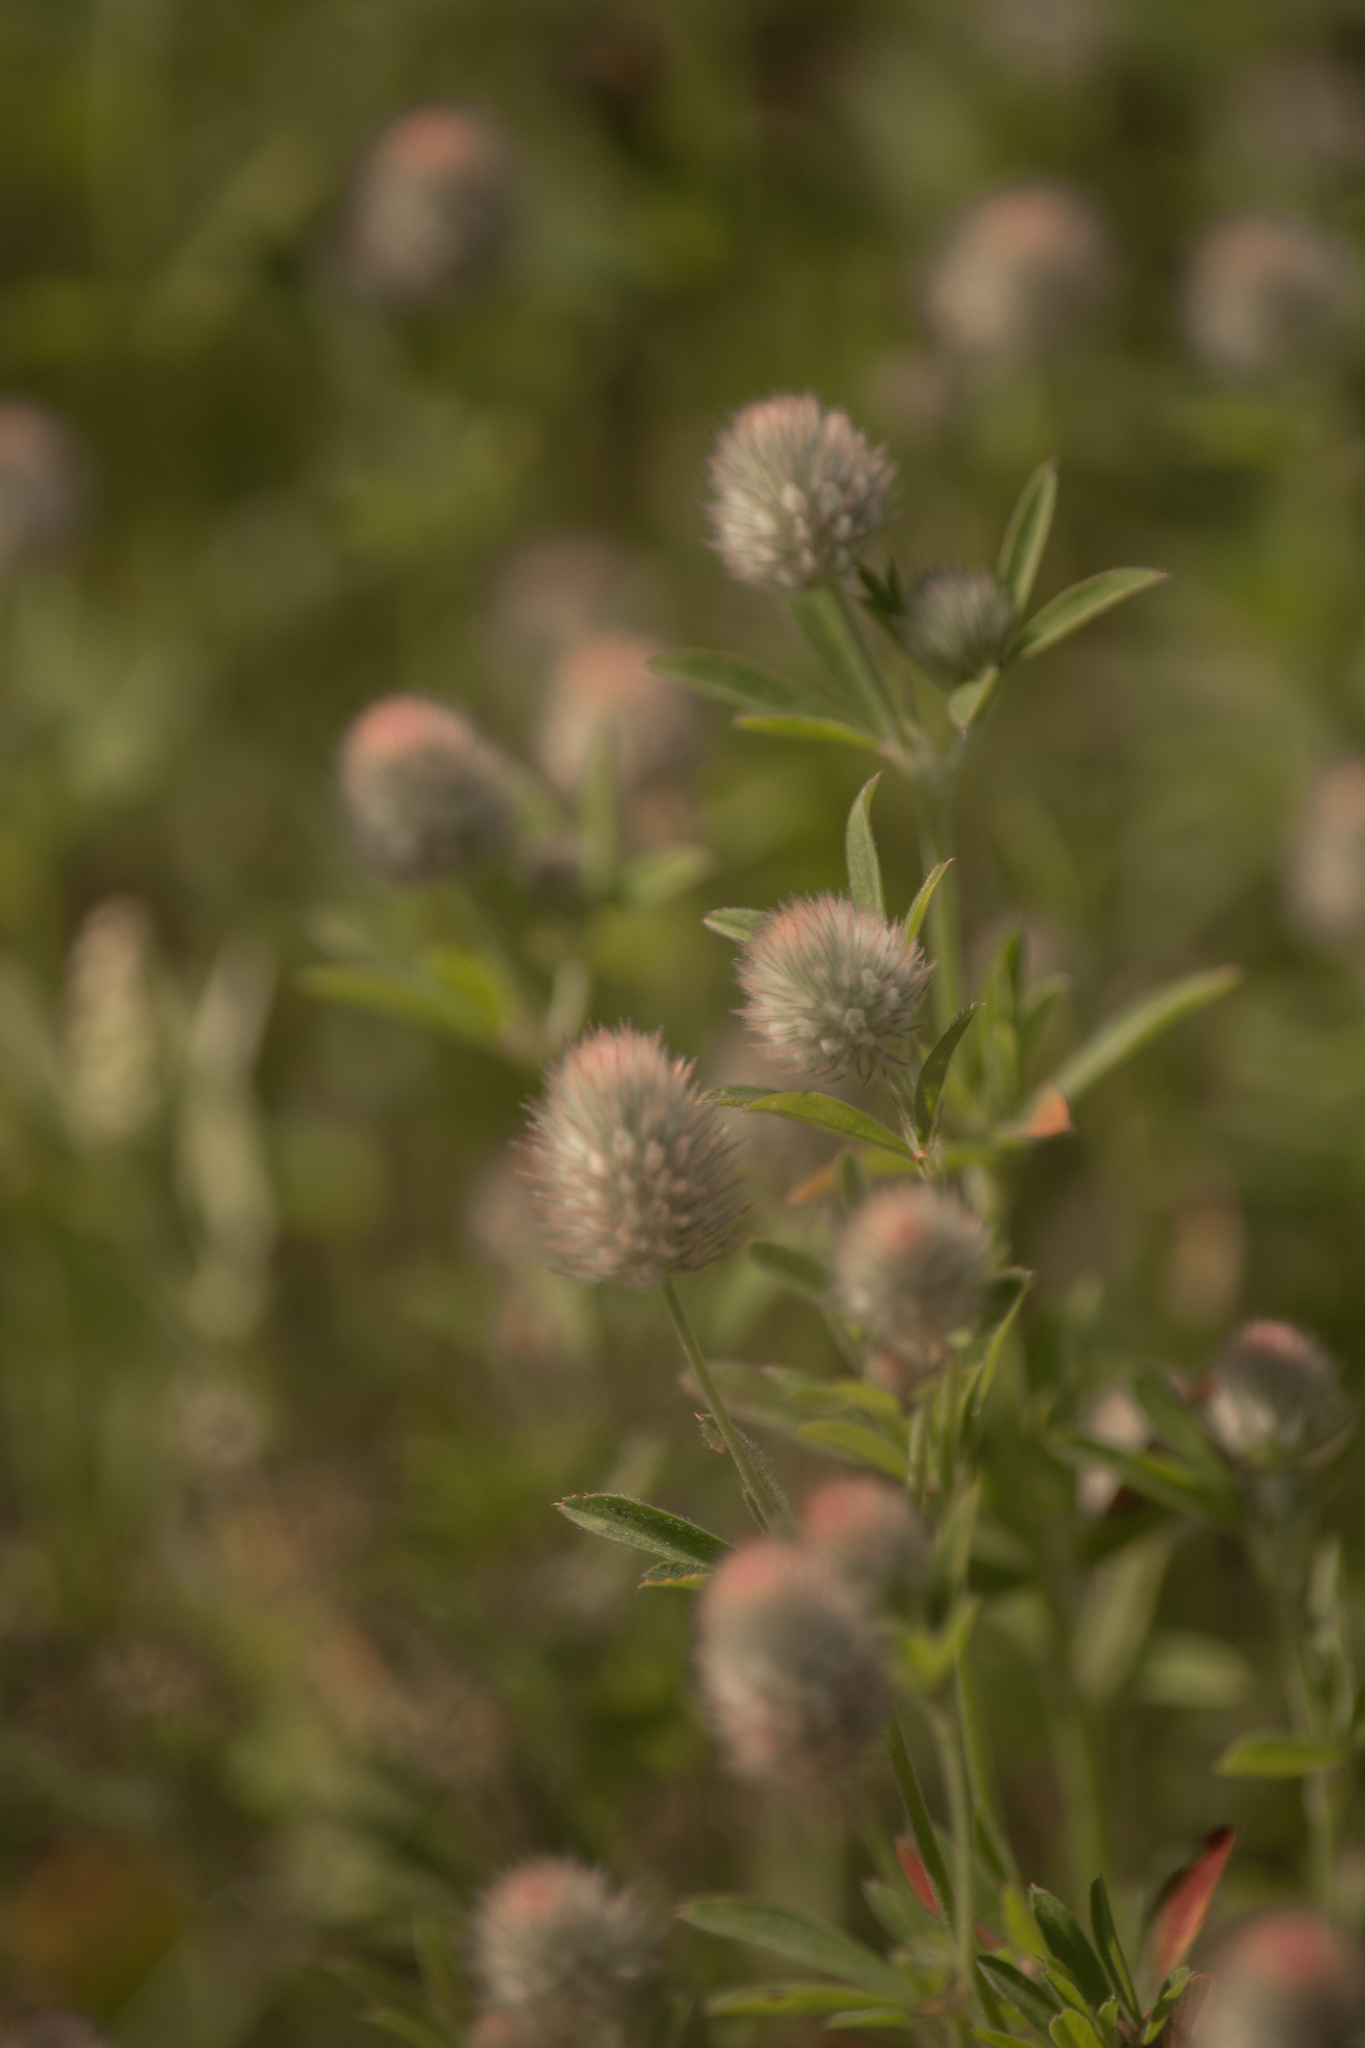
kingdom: Plantae
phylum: Tracheophyta
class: Magnoliopsida
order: Fabales
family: Fabaceae
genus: Trifolium
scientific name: Trifolium arvense
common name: Hare's-foot clover
